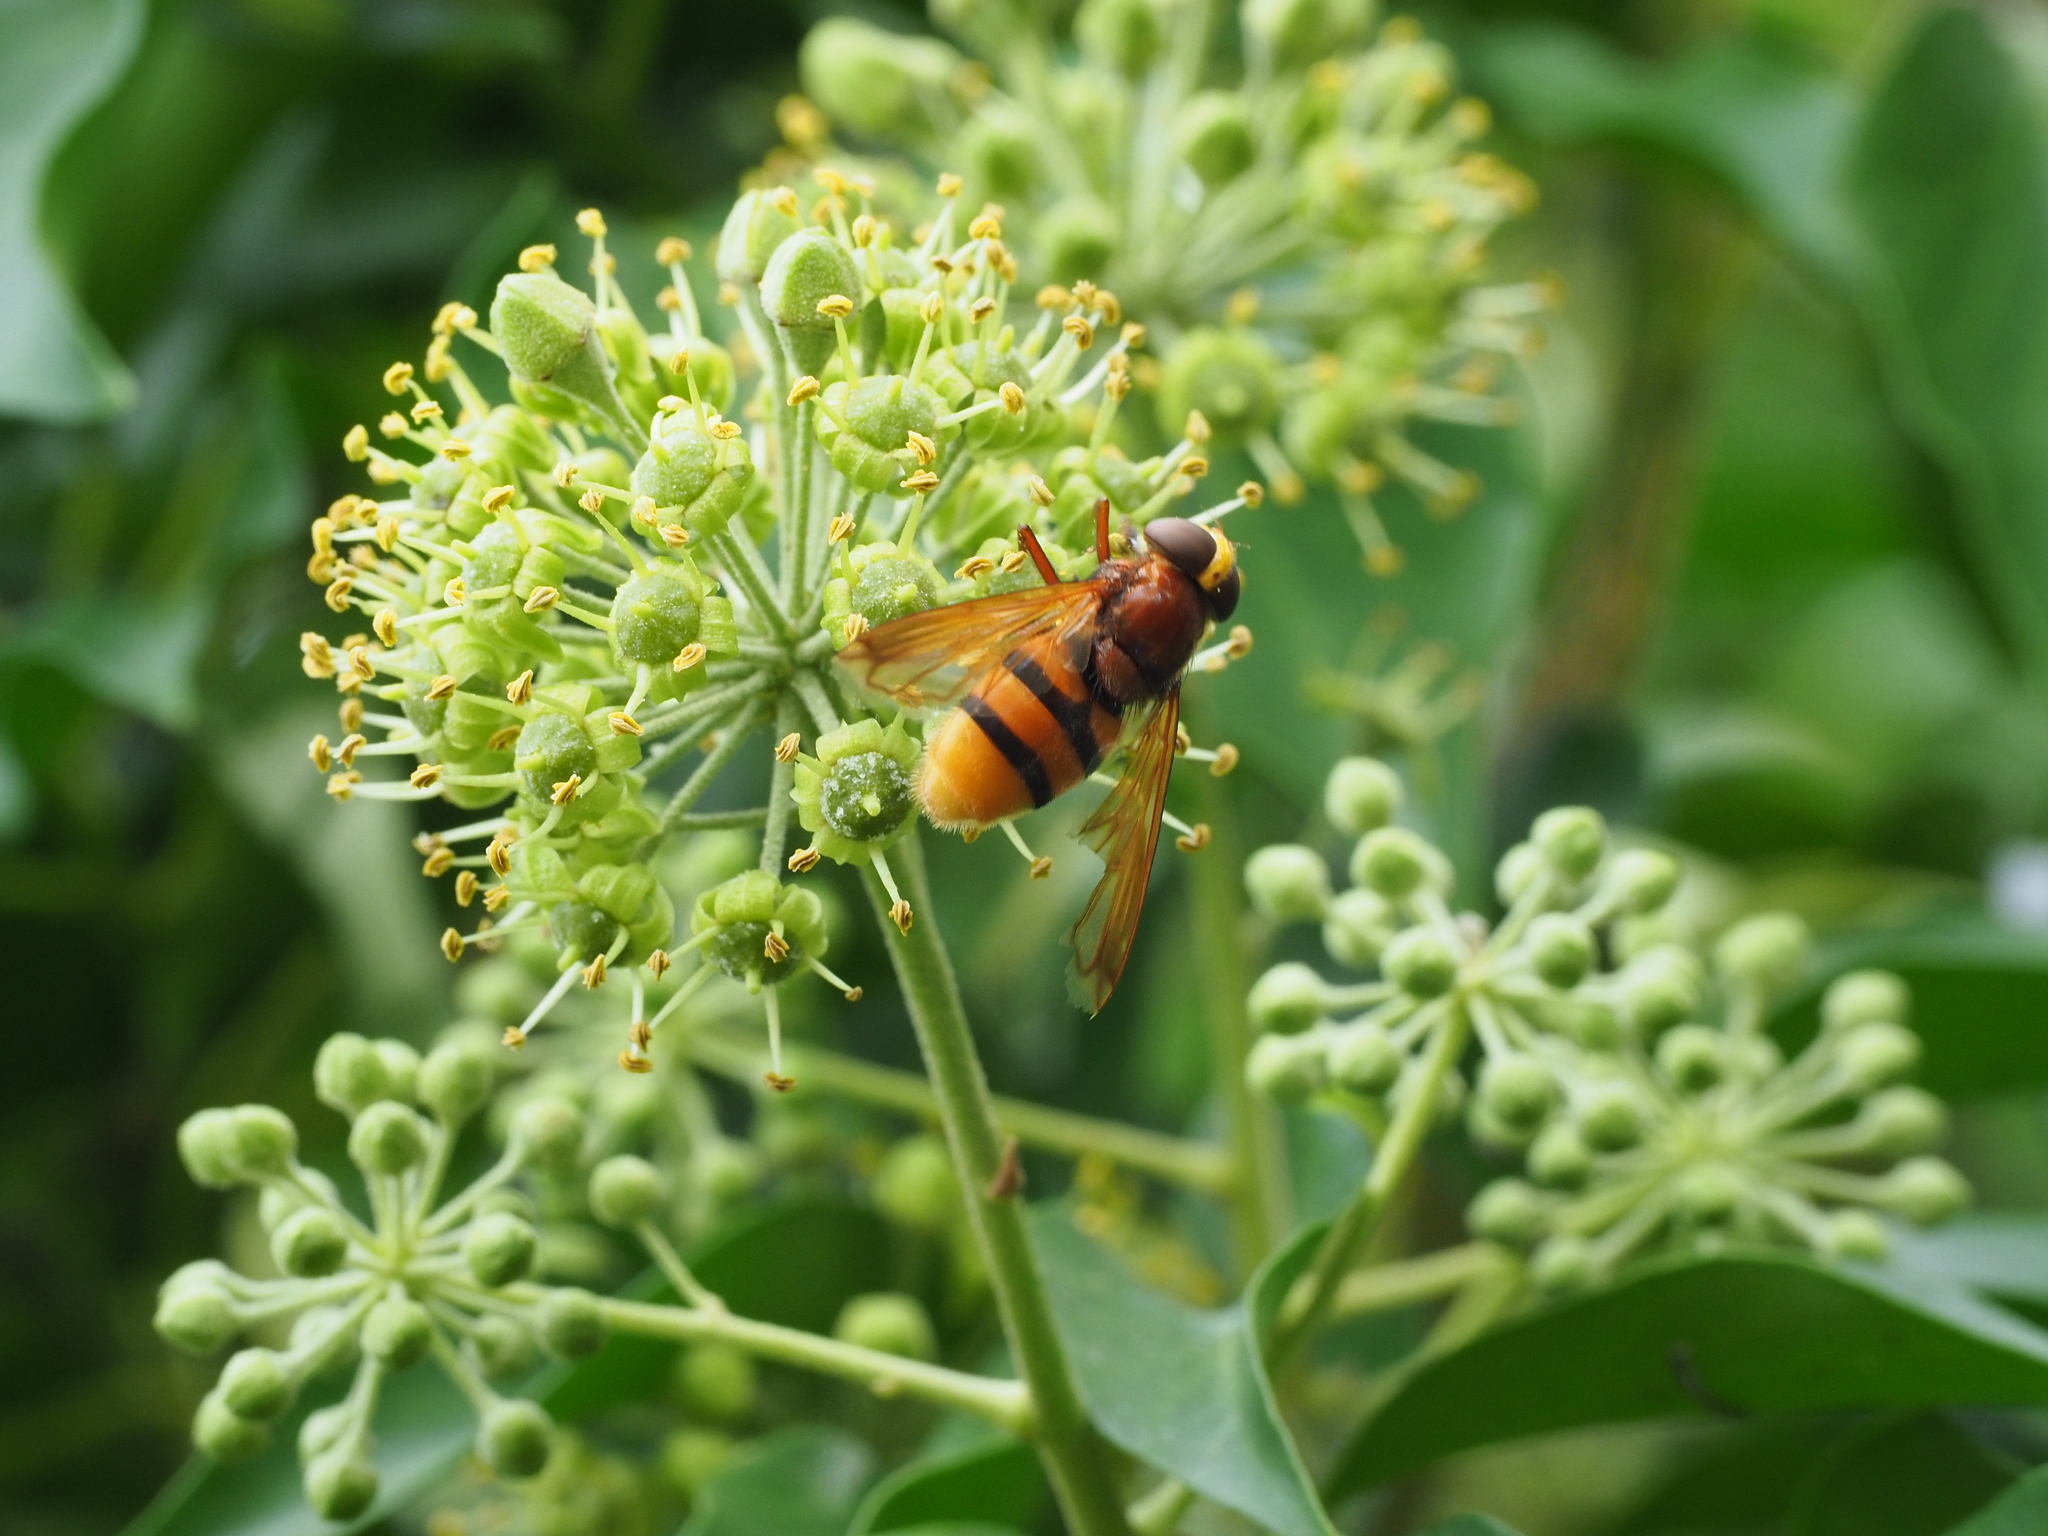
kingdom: Animalia
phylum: Arthropoda
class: Insecta
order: Diptera
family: Syrphidae
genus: Volucella
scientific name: Volucella zonaria
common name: Hornet hoverfly
